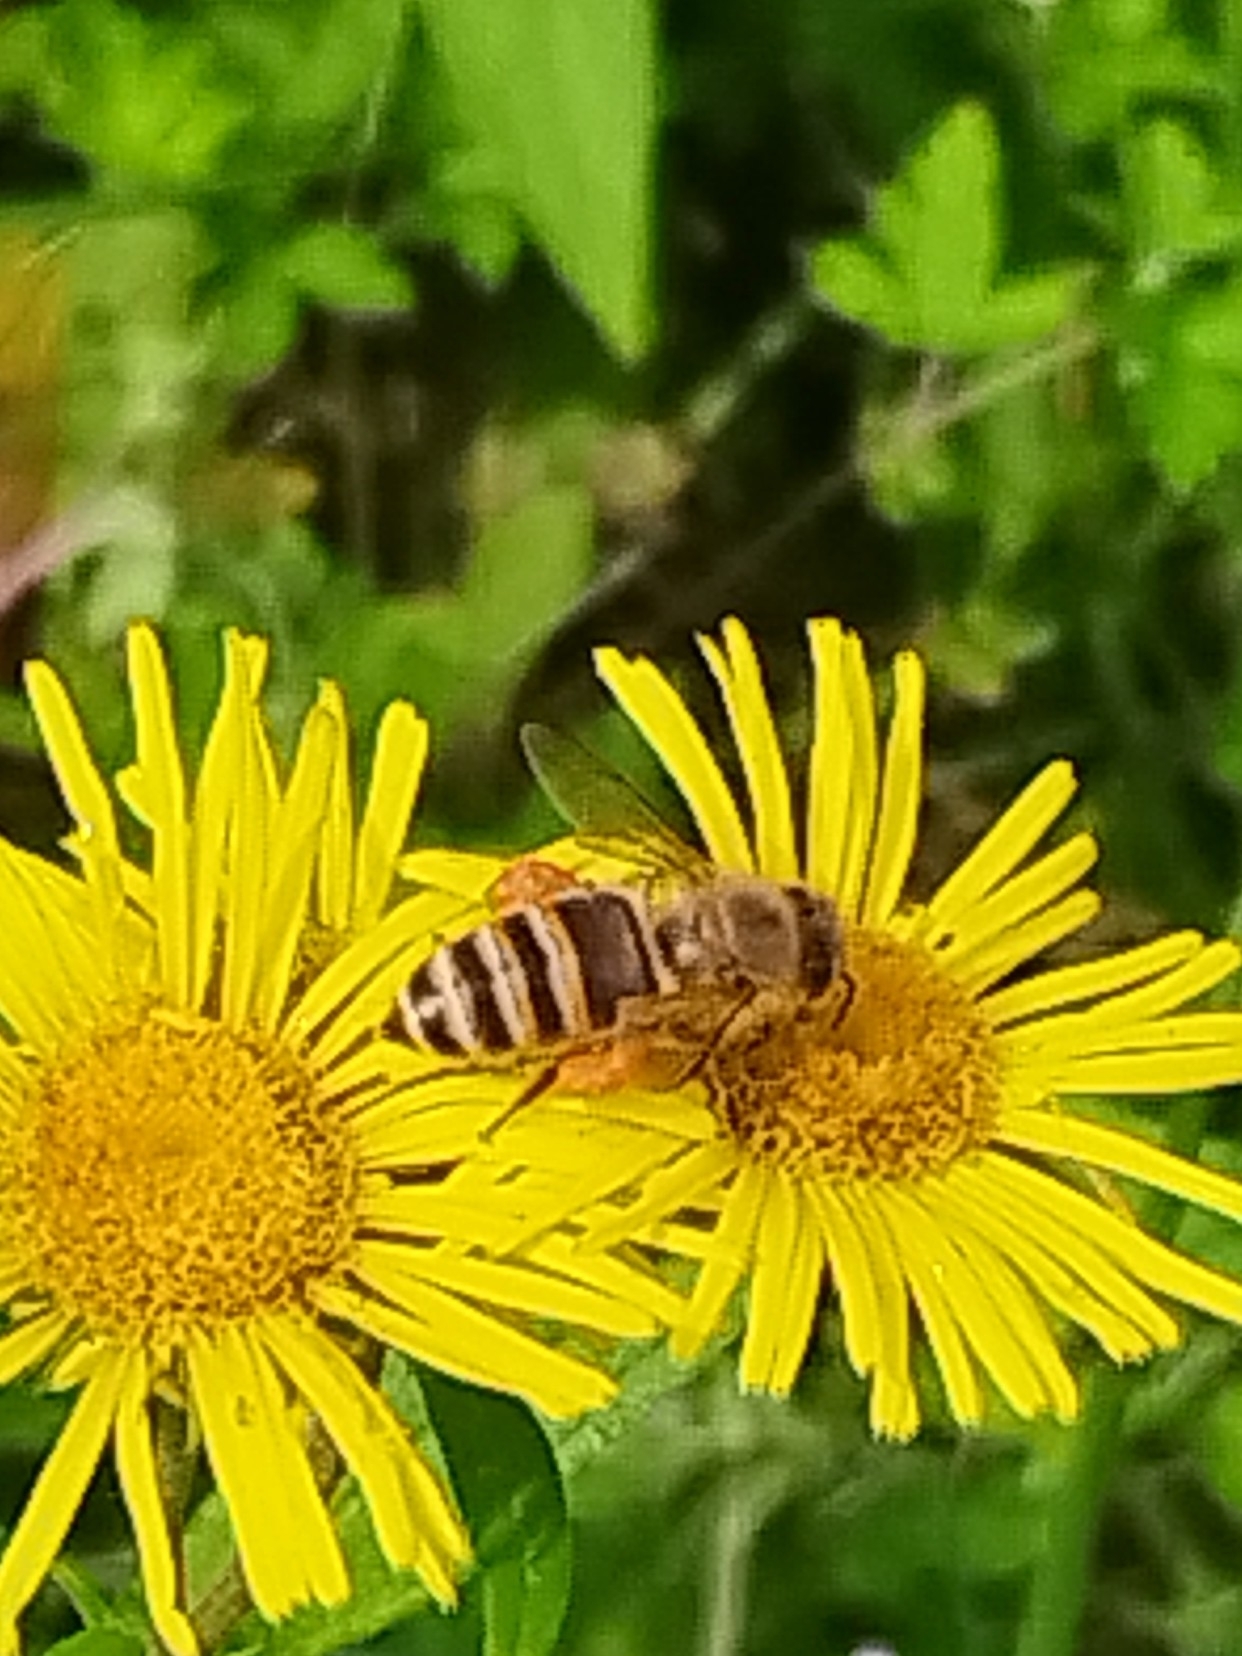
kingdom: Animalia
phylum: Arthropoda
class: Insecta
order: Hymenoptera
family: Apidae
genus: Apis
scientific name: Apis cerana
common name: Honey bee
